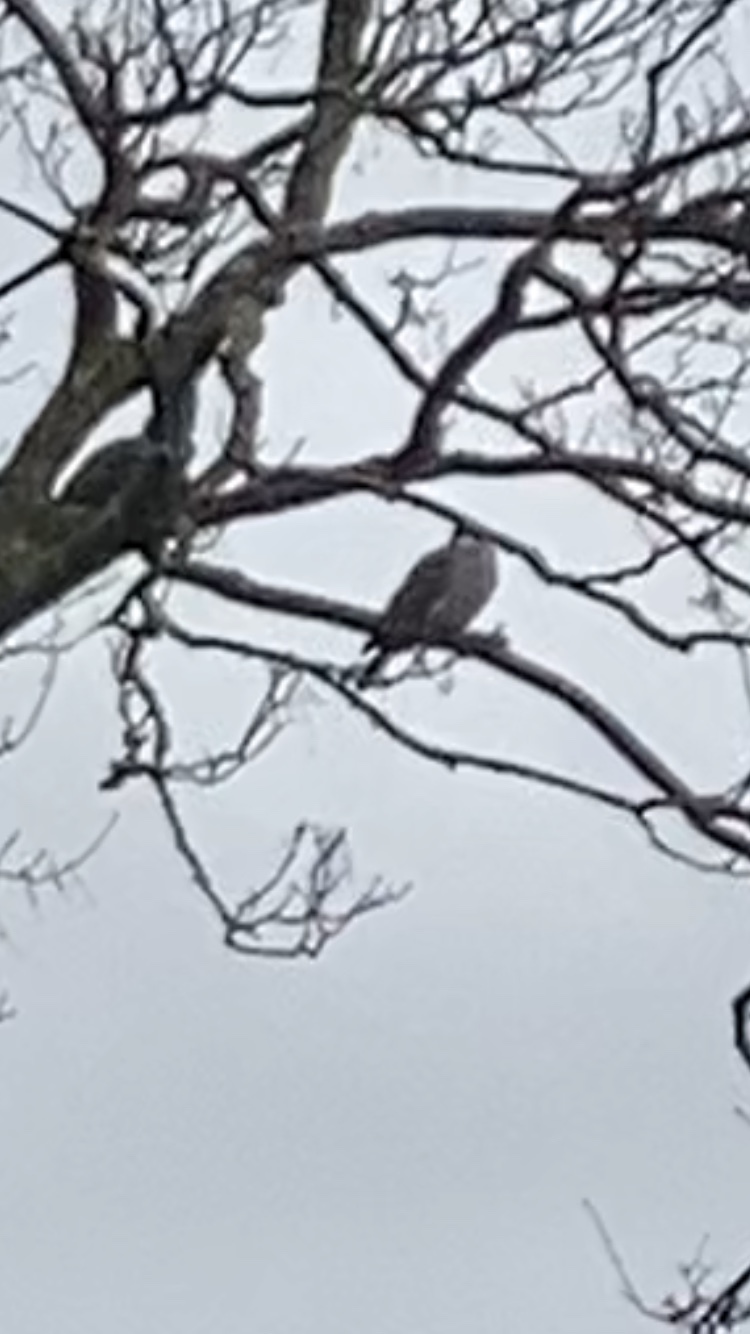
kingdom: Animalia
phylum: Chordata
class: Aves
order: Columbiformes
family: Columbidae
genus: Columba
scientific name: Columba palumbus
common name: Common wood pigeon
